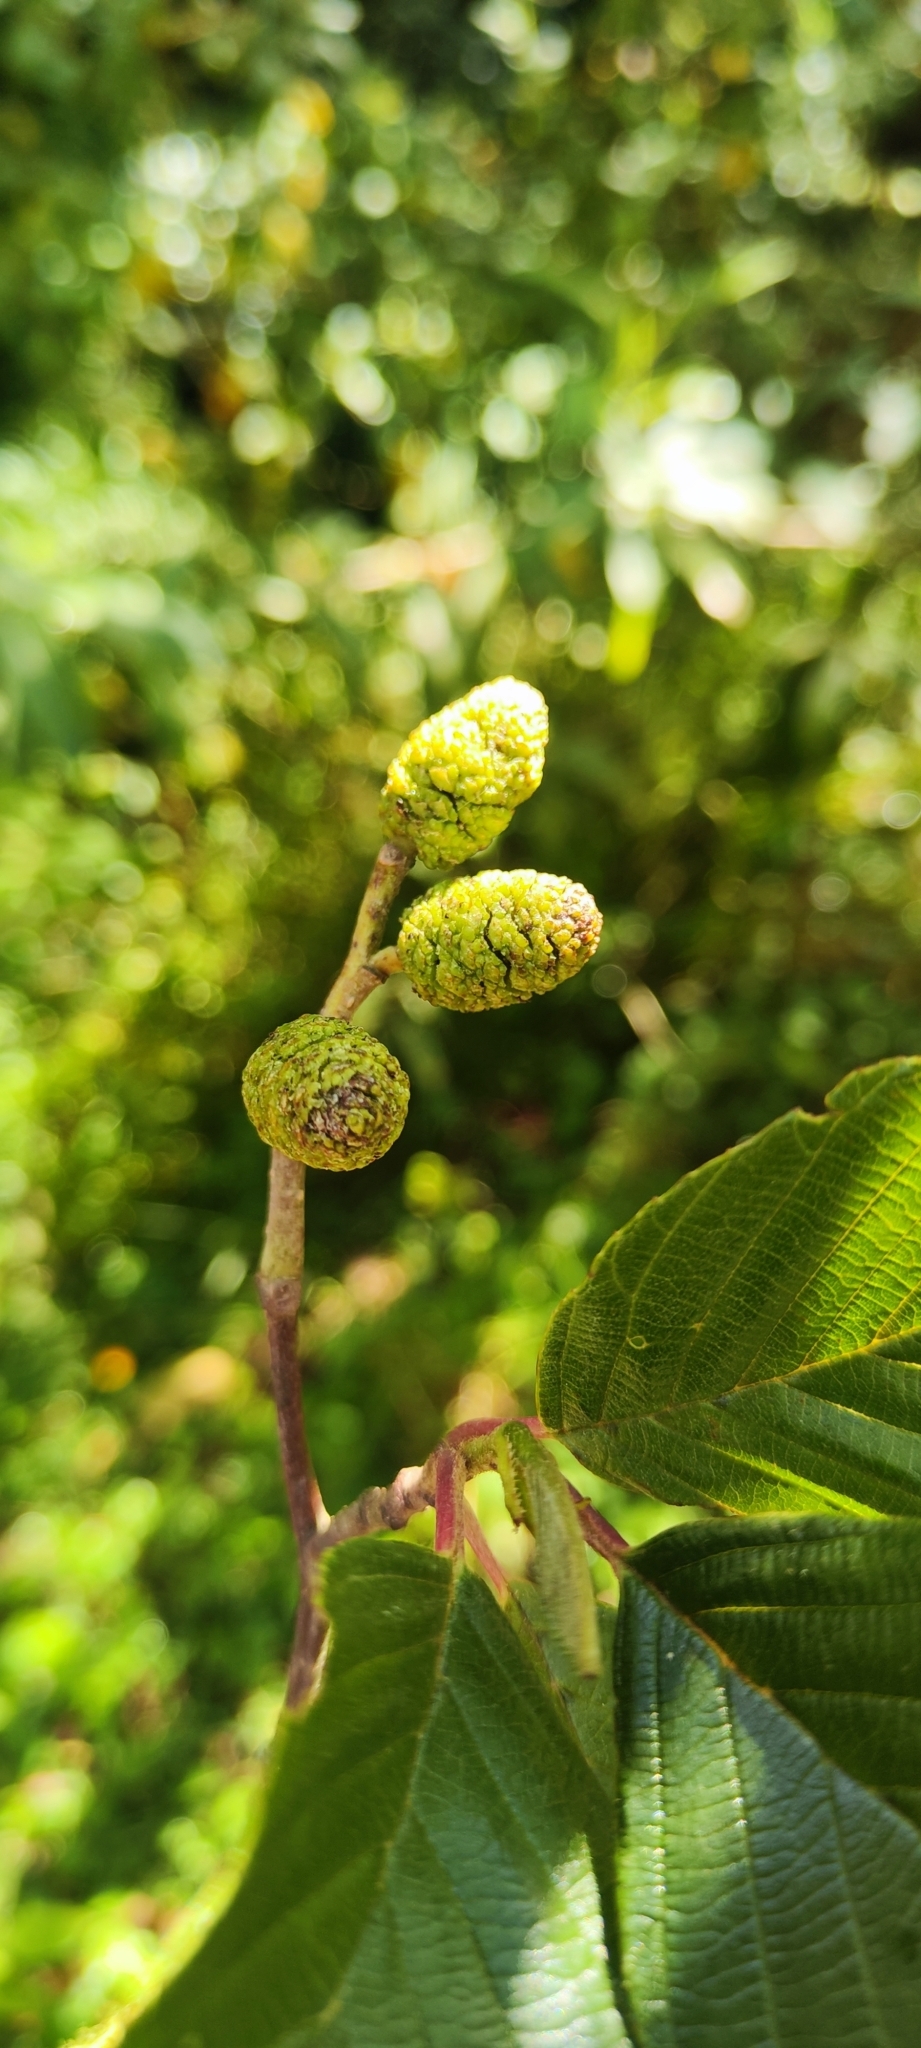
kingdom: Plantae
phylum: Tracheophyta
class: Magnoliopsida
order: Fagales
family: Betulaceae
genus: Alnus
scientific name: Alnus acuminata
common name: Alder
